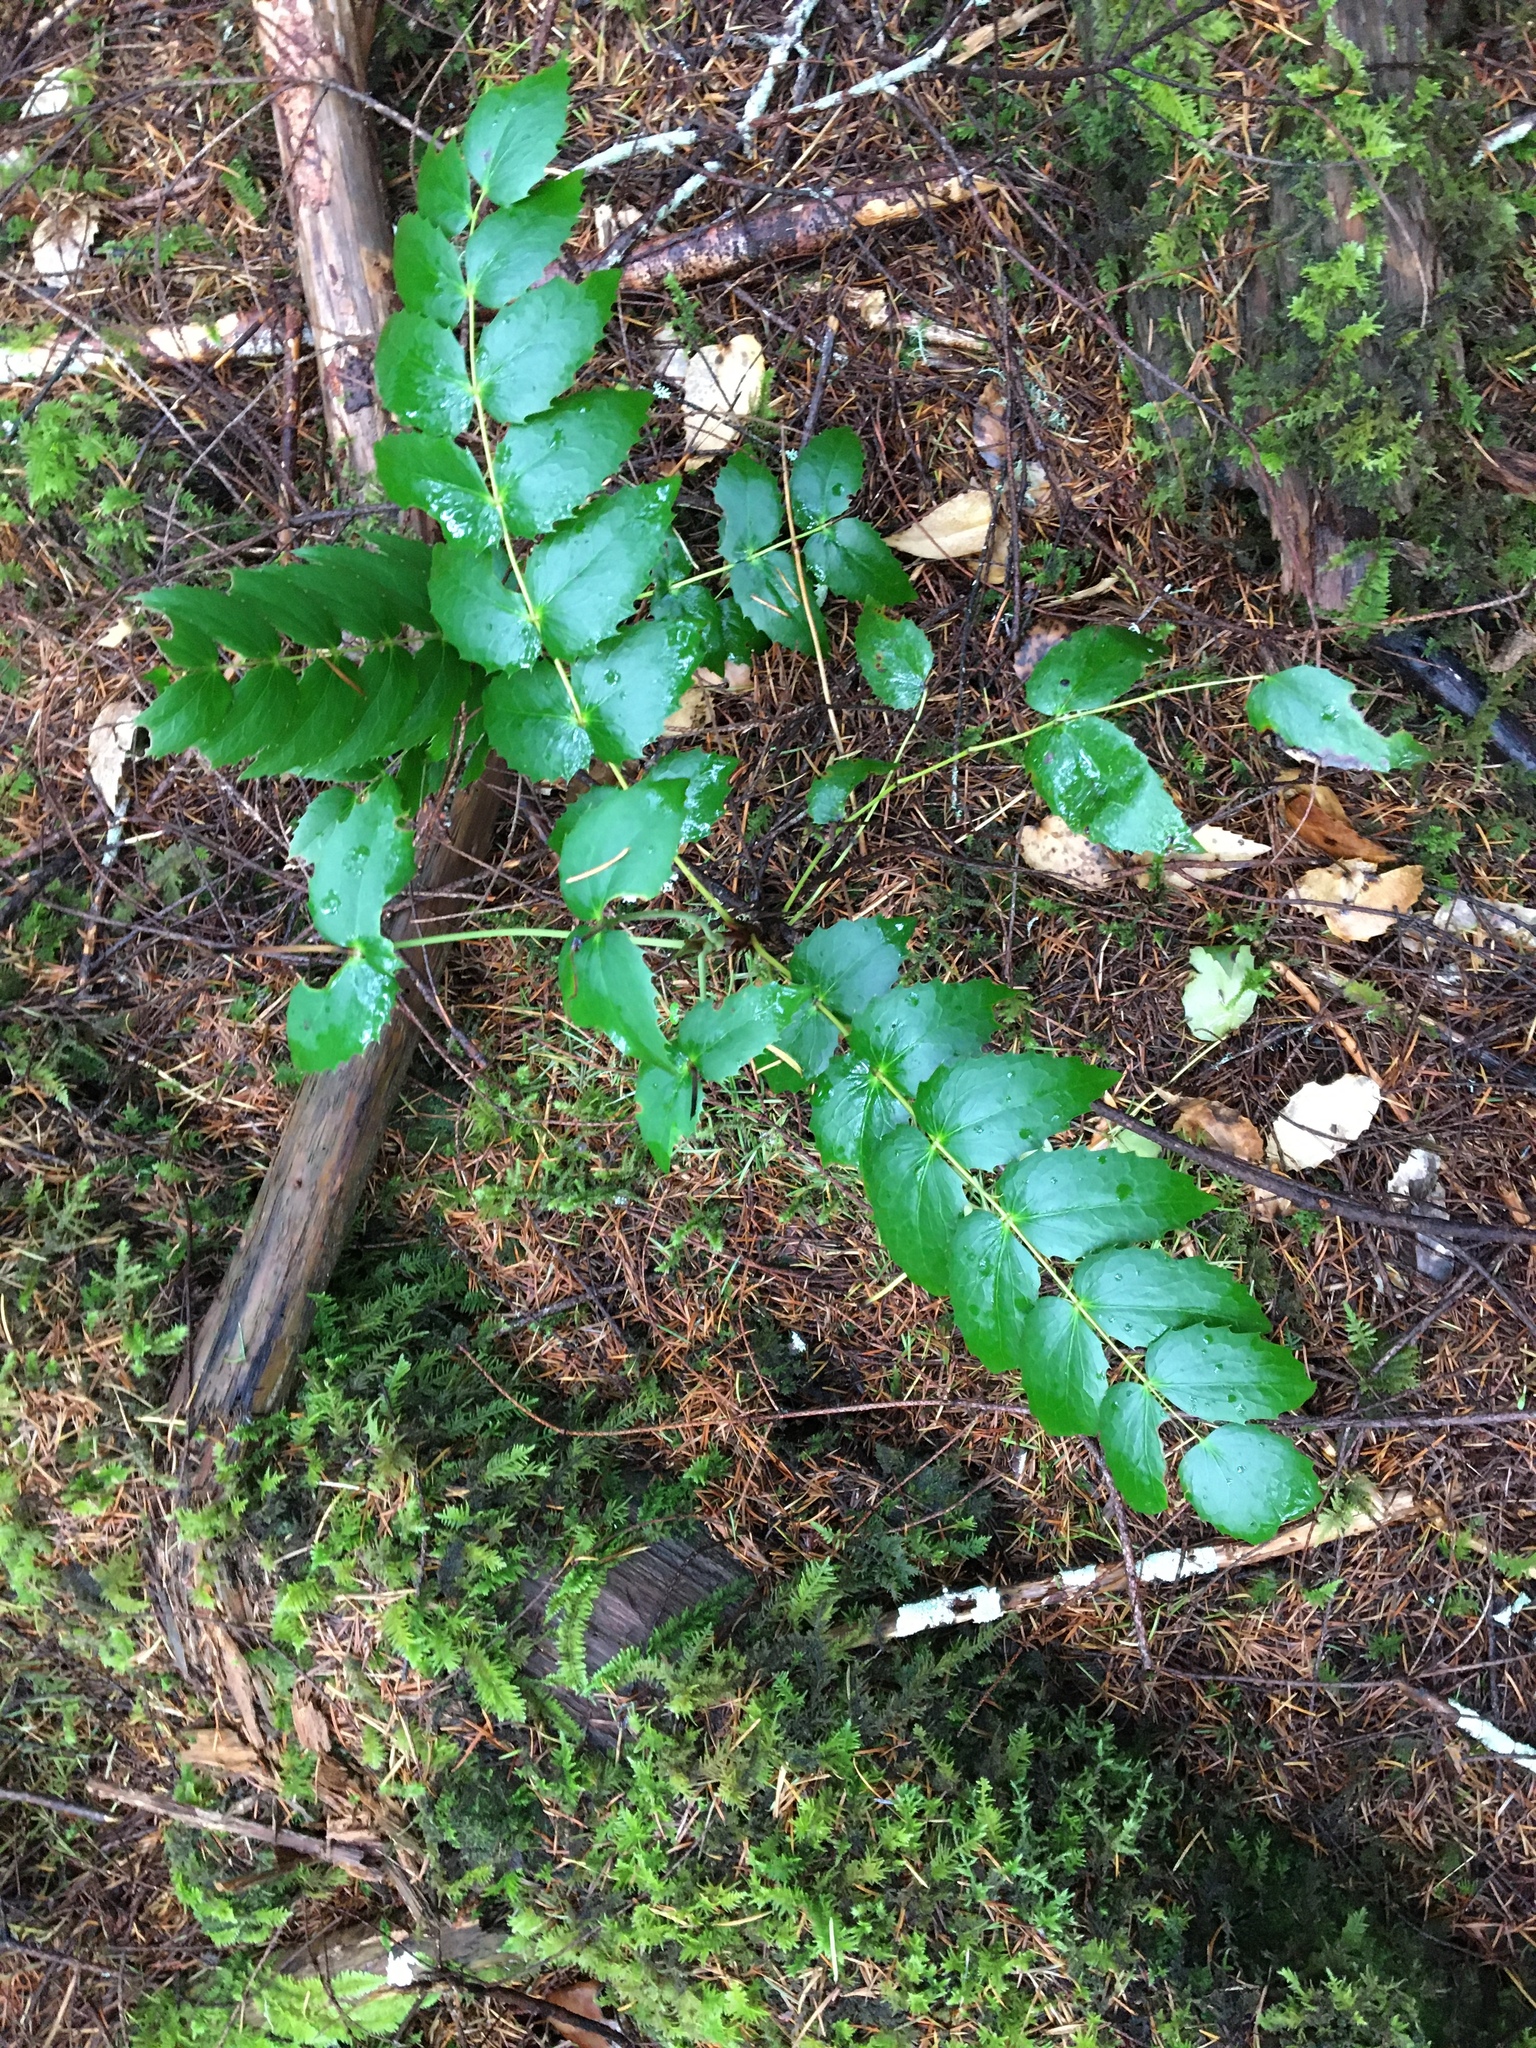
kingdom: Plantae
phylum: Tracheophyta
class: Magnoliopsida
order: Ranunculales
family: Berberidaceae
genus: Mahonia
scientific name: Mahonia nervosa
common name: Cascade oregon-grape
